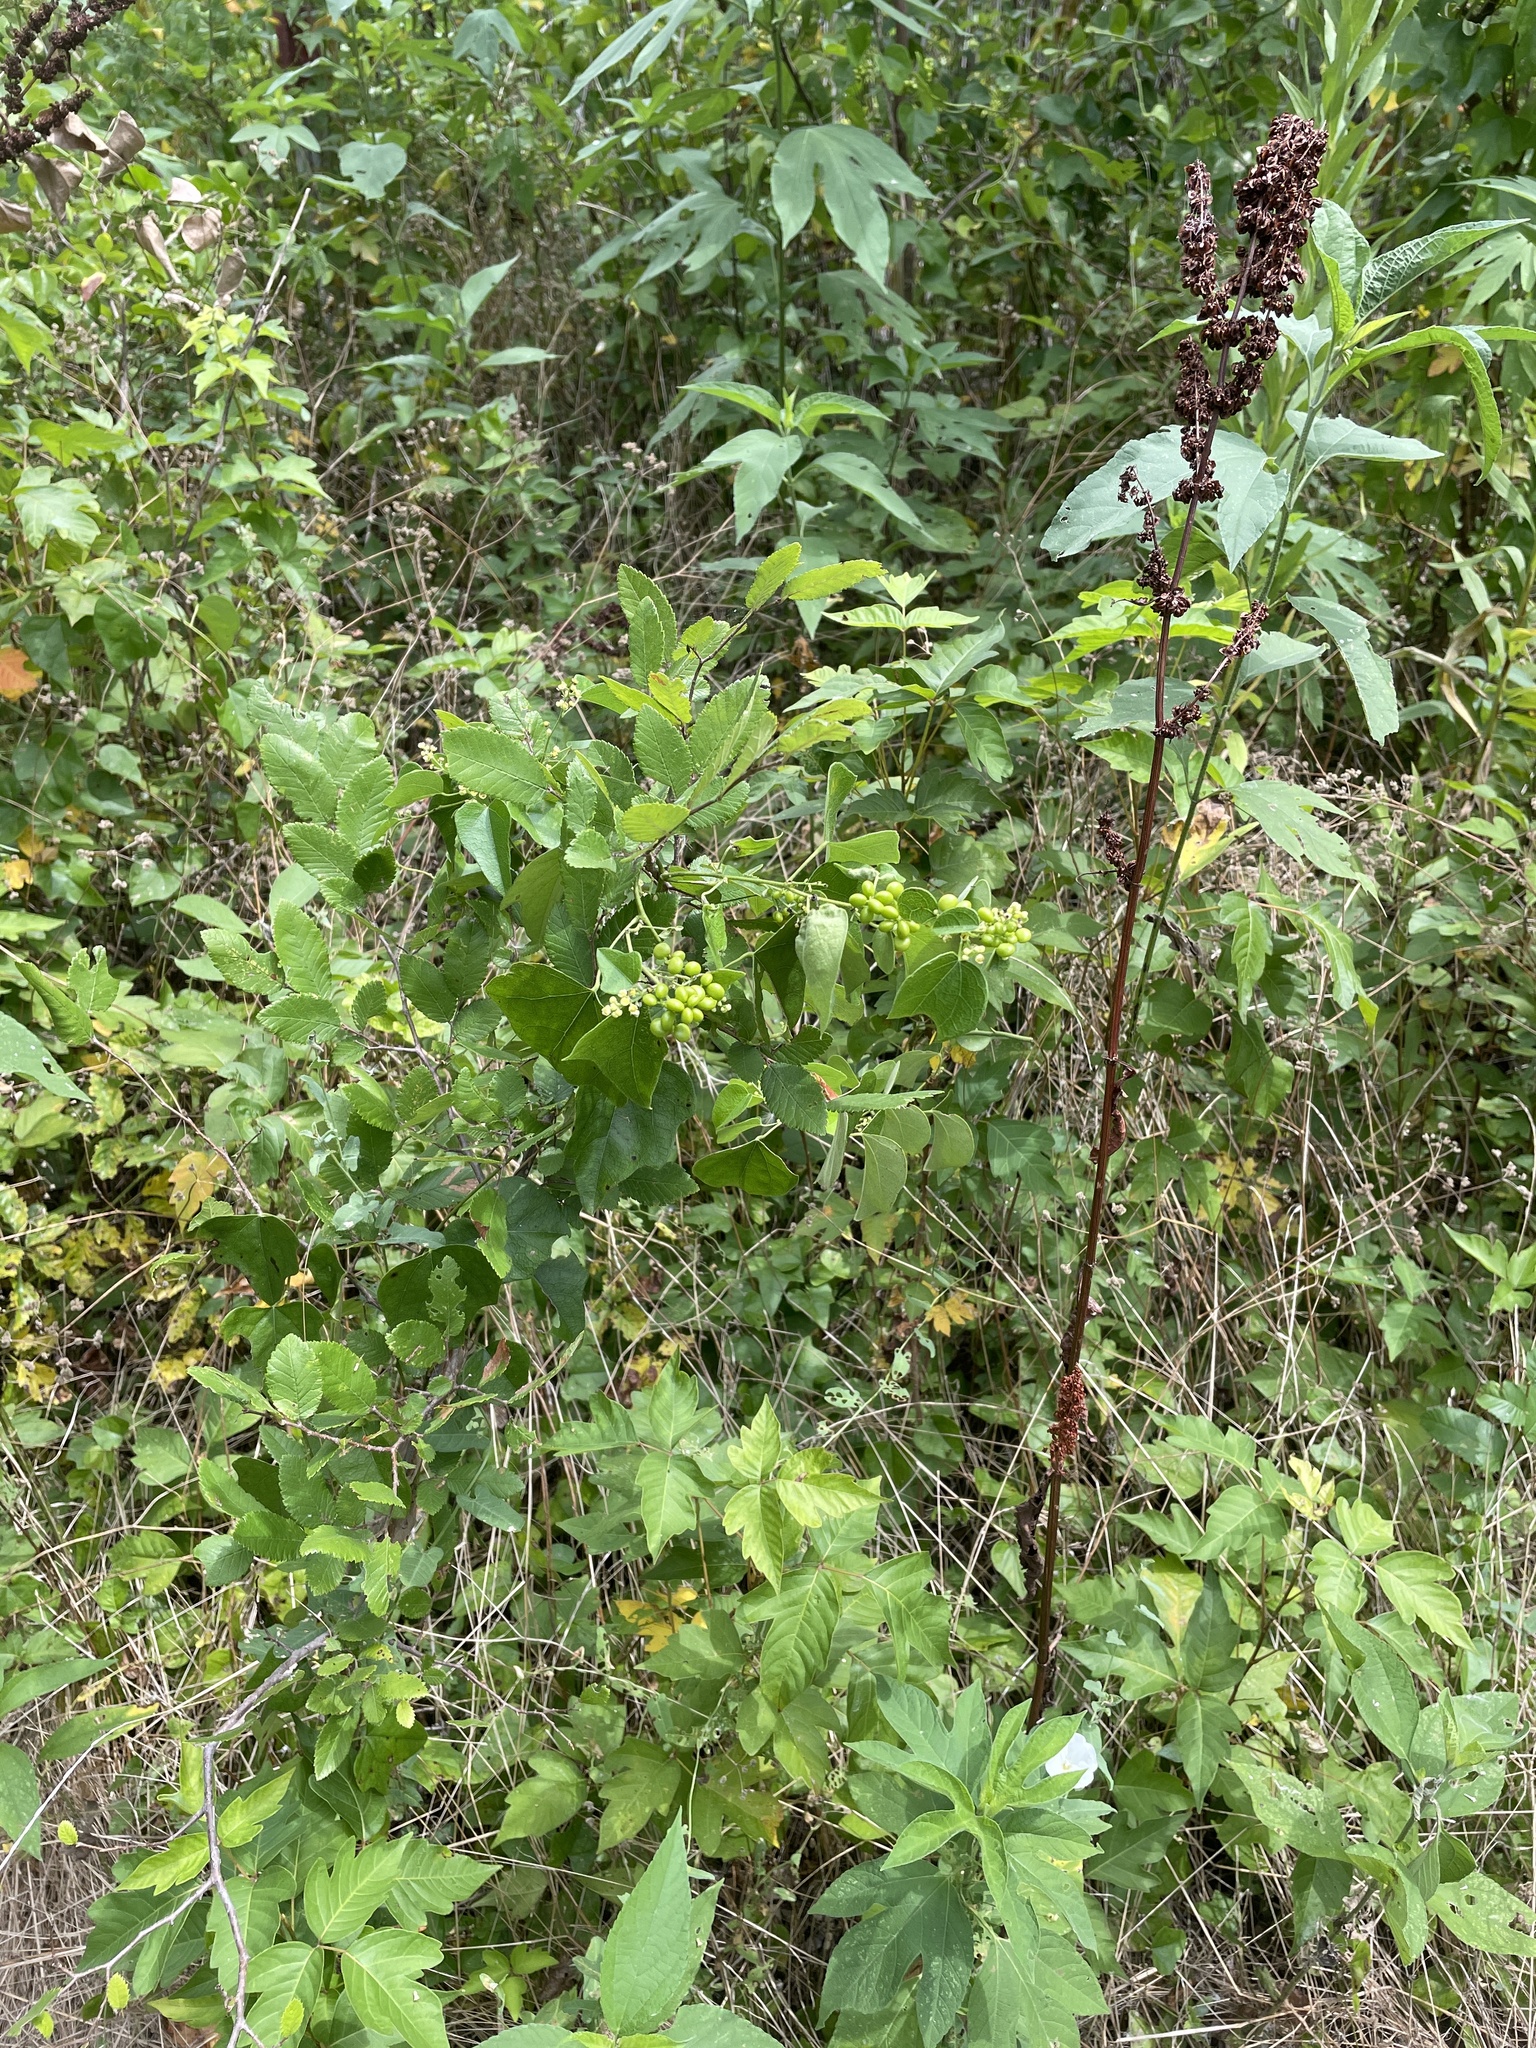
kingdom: Plantae
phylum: Tracheophyta
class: Magnoliopsida
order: Ranunculales
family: Menispermaceae
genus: Cocculus
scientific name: Cocculus carolinus
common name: Carolina moonseed
